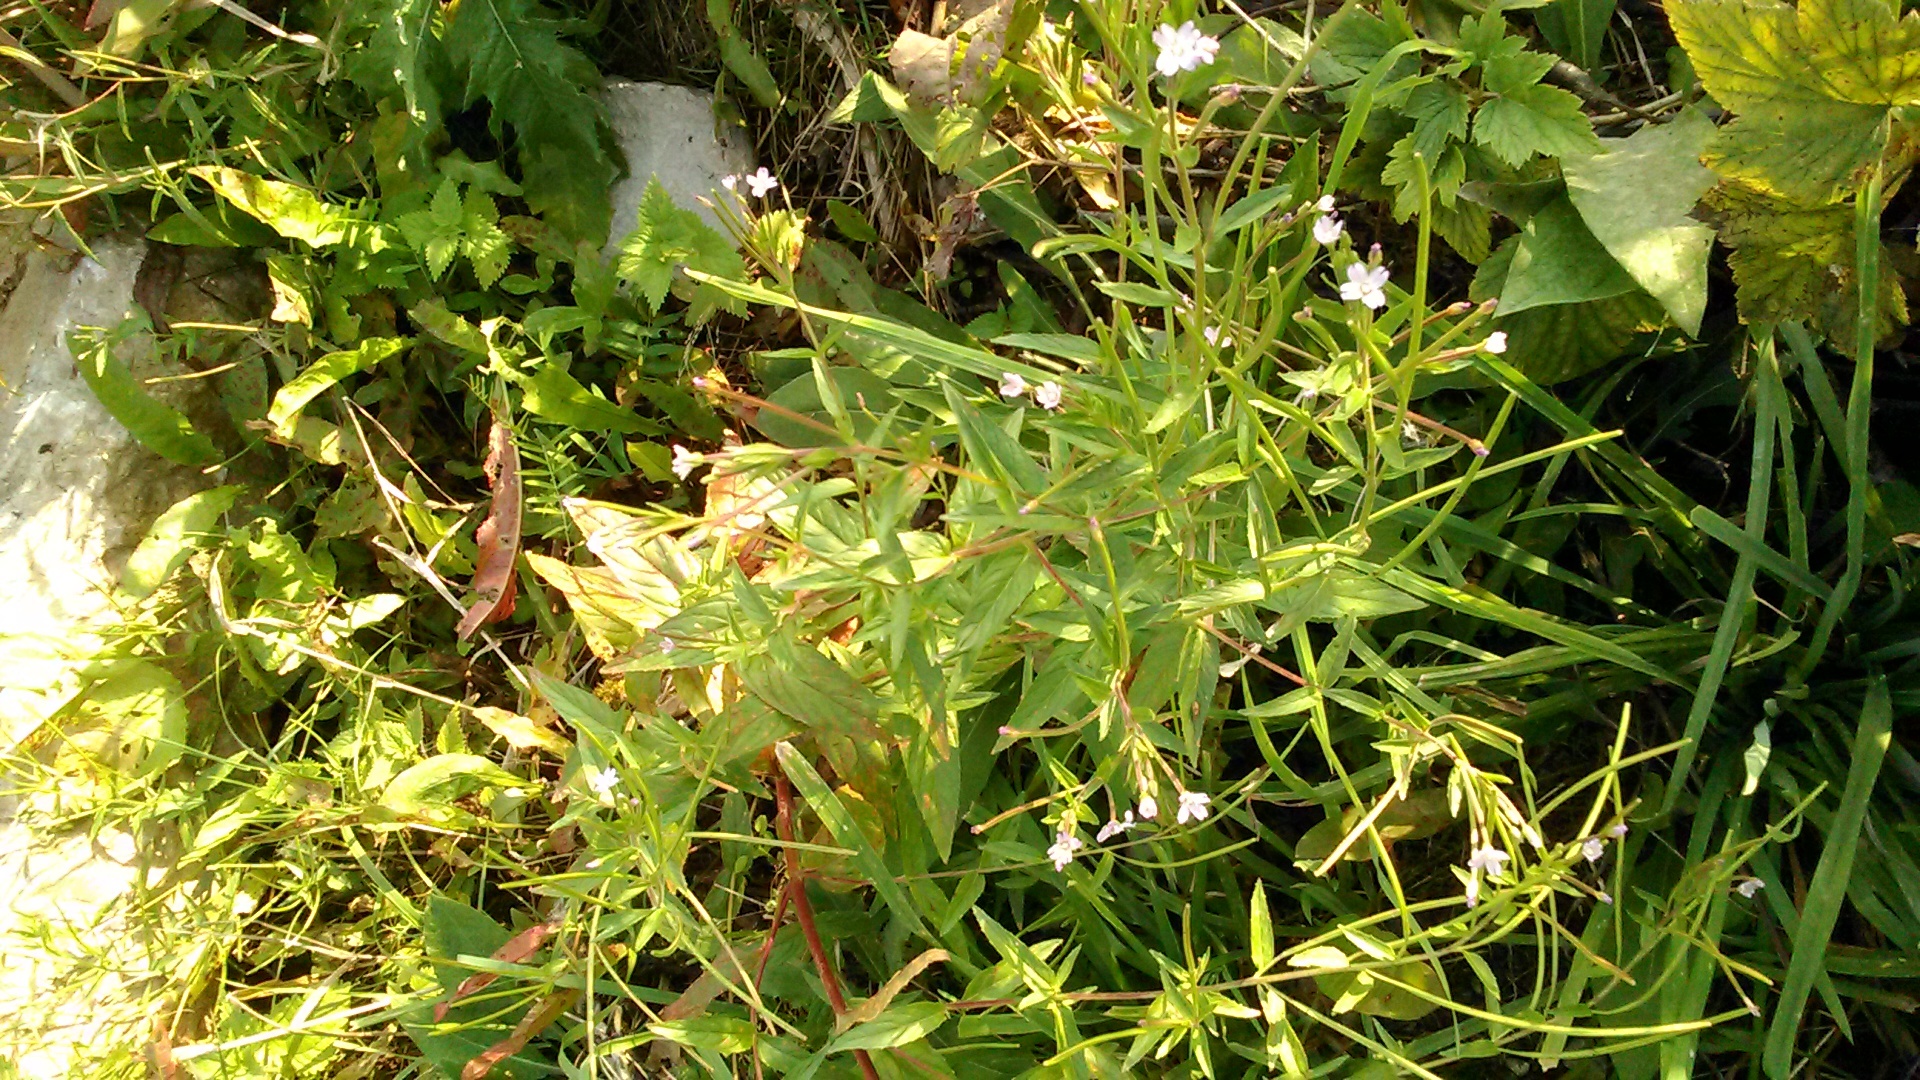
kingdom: Plantae
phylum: Tracheophyta
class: Magnoliopsida
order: Myrtales
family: Onagraceae
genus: Epilobium
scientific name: Epilobium ciliatum
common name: American willowherb
